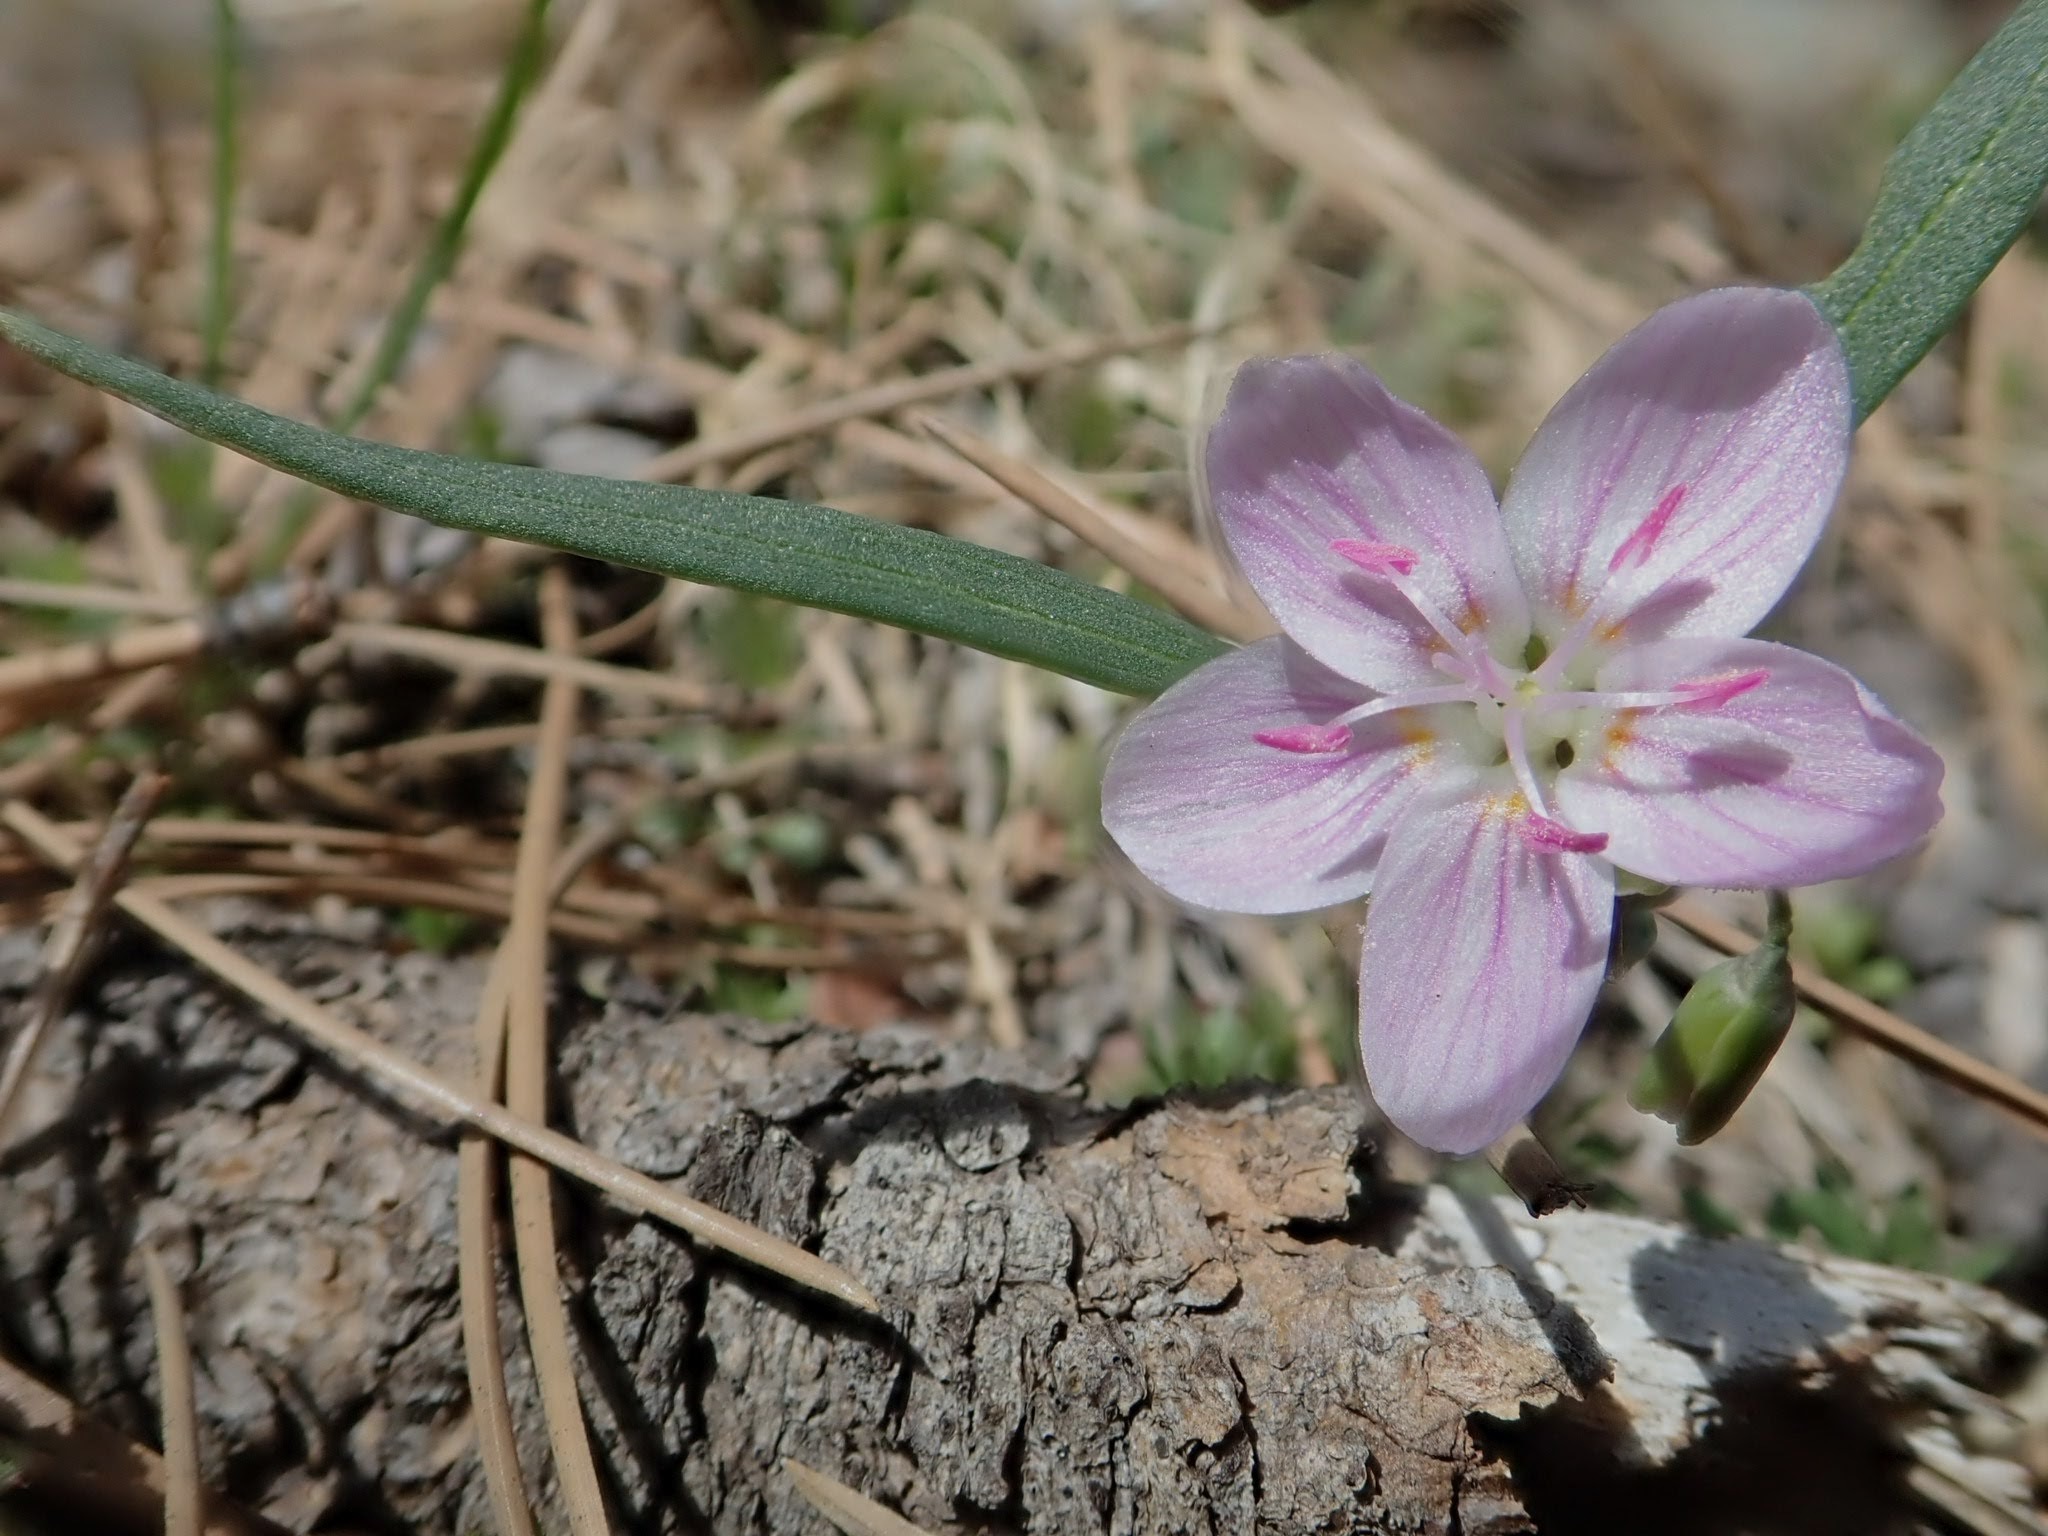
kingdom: Plantae
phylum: Tracheophyta
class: Magnoliopsida
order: Caryophyllales
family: Montiaceae
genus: Claytonia
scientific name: Claytonia rosea
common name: Rocky mountain spring-beauty
